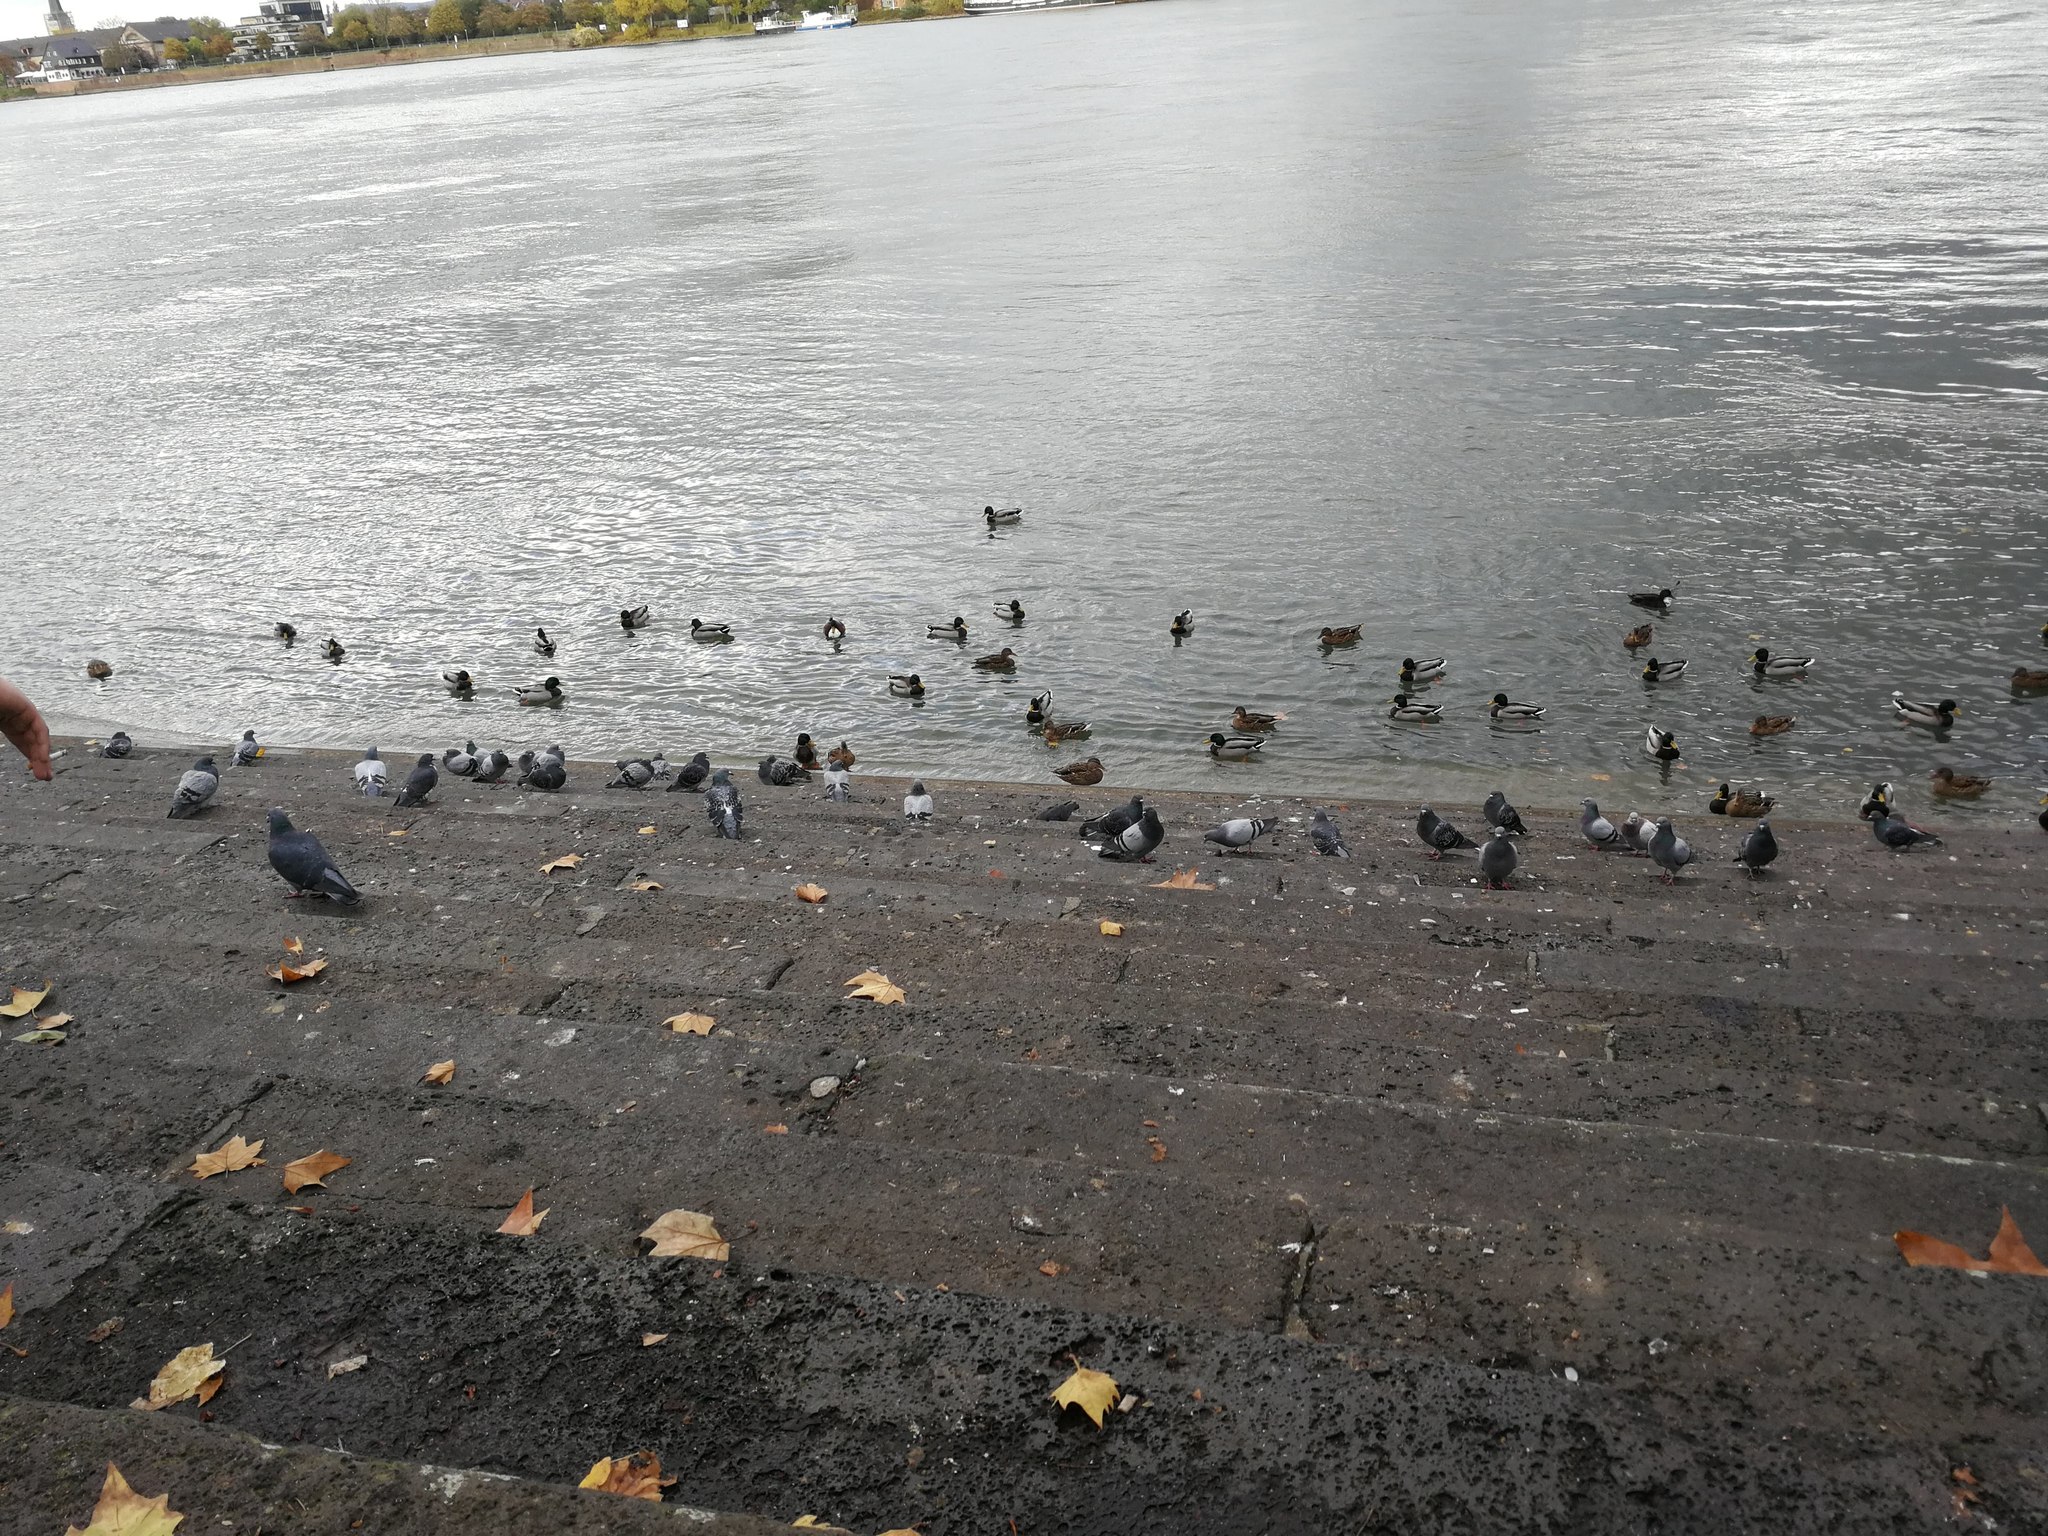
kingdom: Animalia
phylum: Chordata
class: Aves
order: Anseriformes
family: Anatidae
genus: Anas
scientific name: Anas platyrhynchos
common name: Mallard
